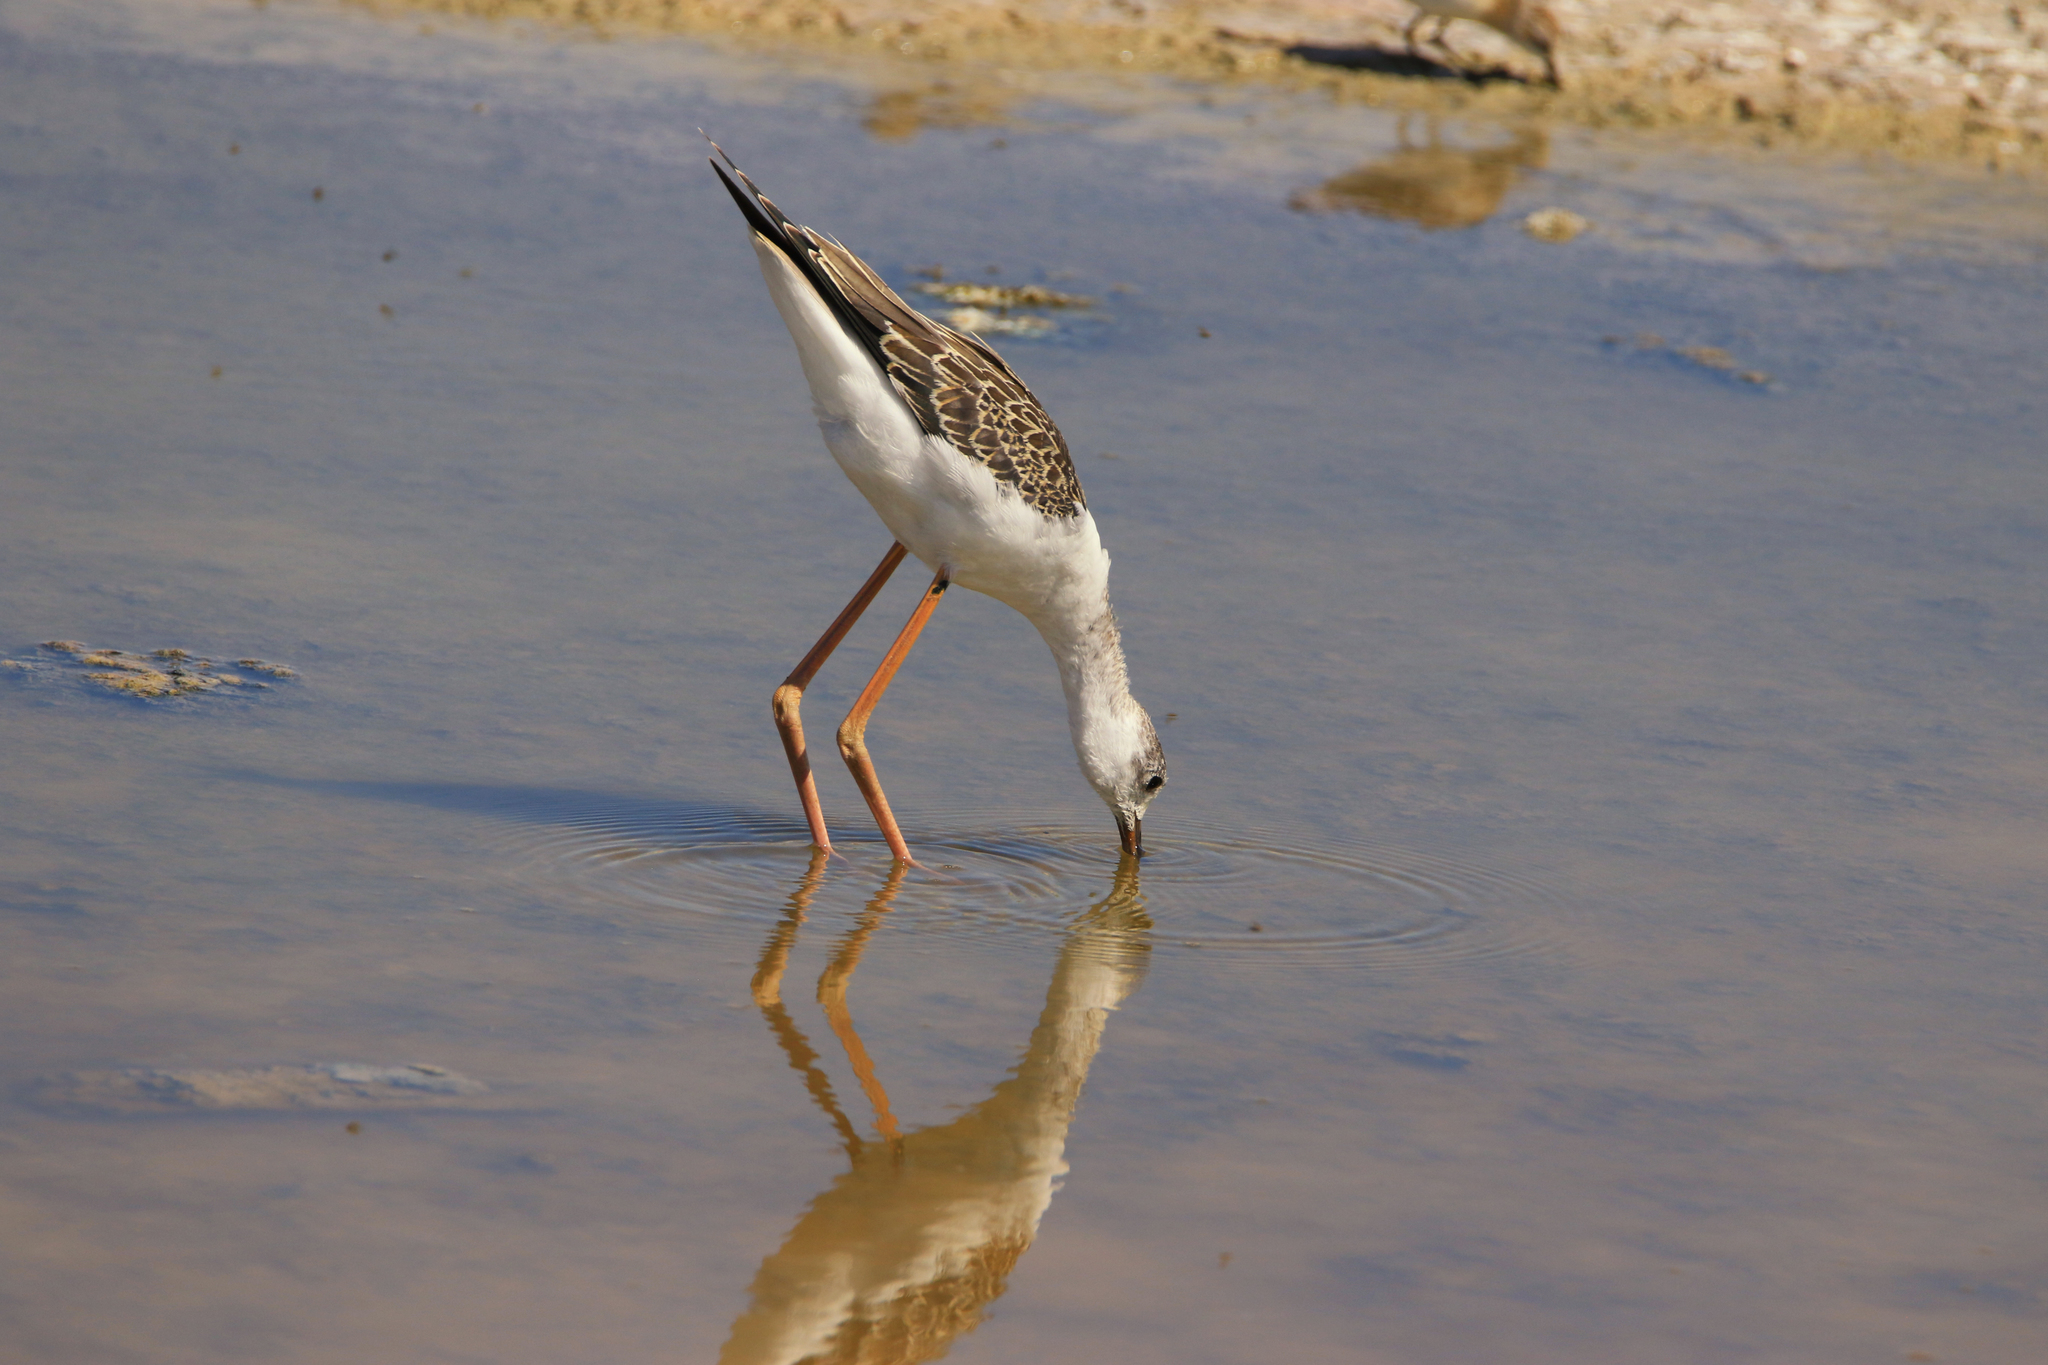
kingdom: Animalia
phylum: Chordata
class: Aves
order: Charadriiformes
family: Recurvirostridae
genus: Himantopus
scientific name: Himantopus himantopus
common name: Black-winged stilt
